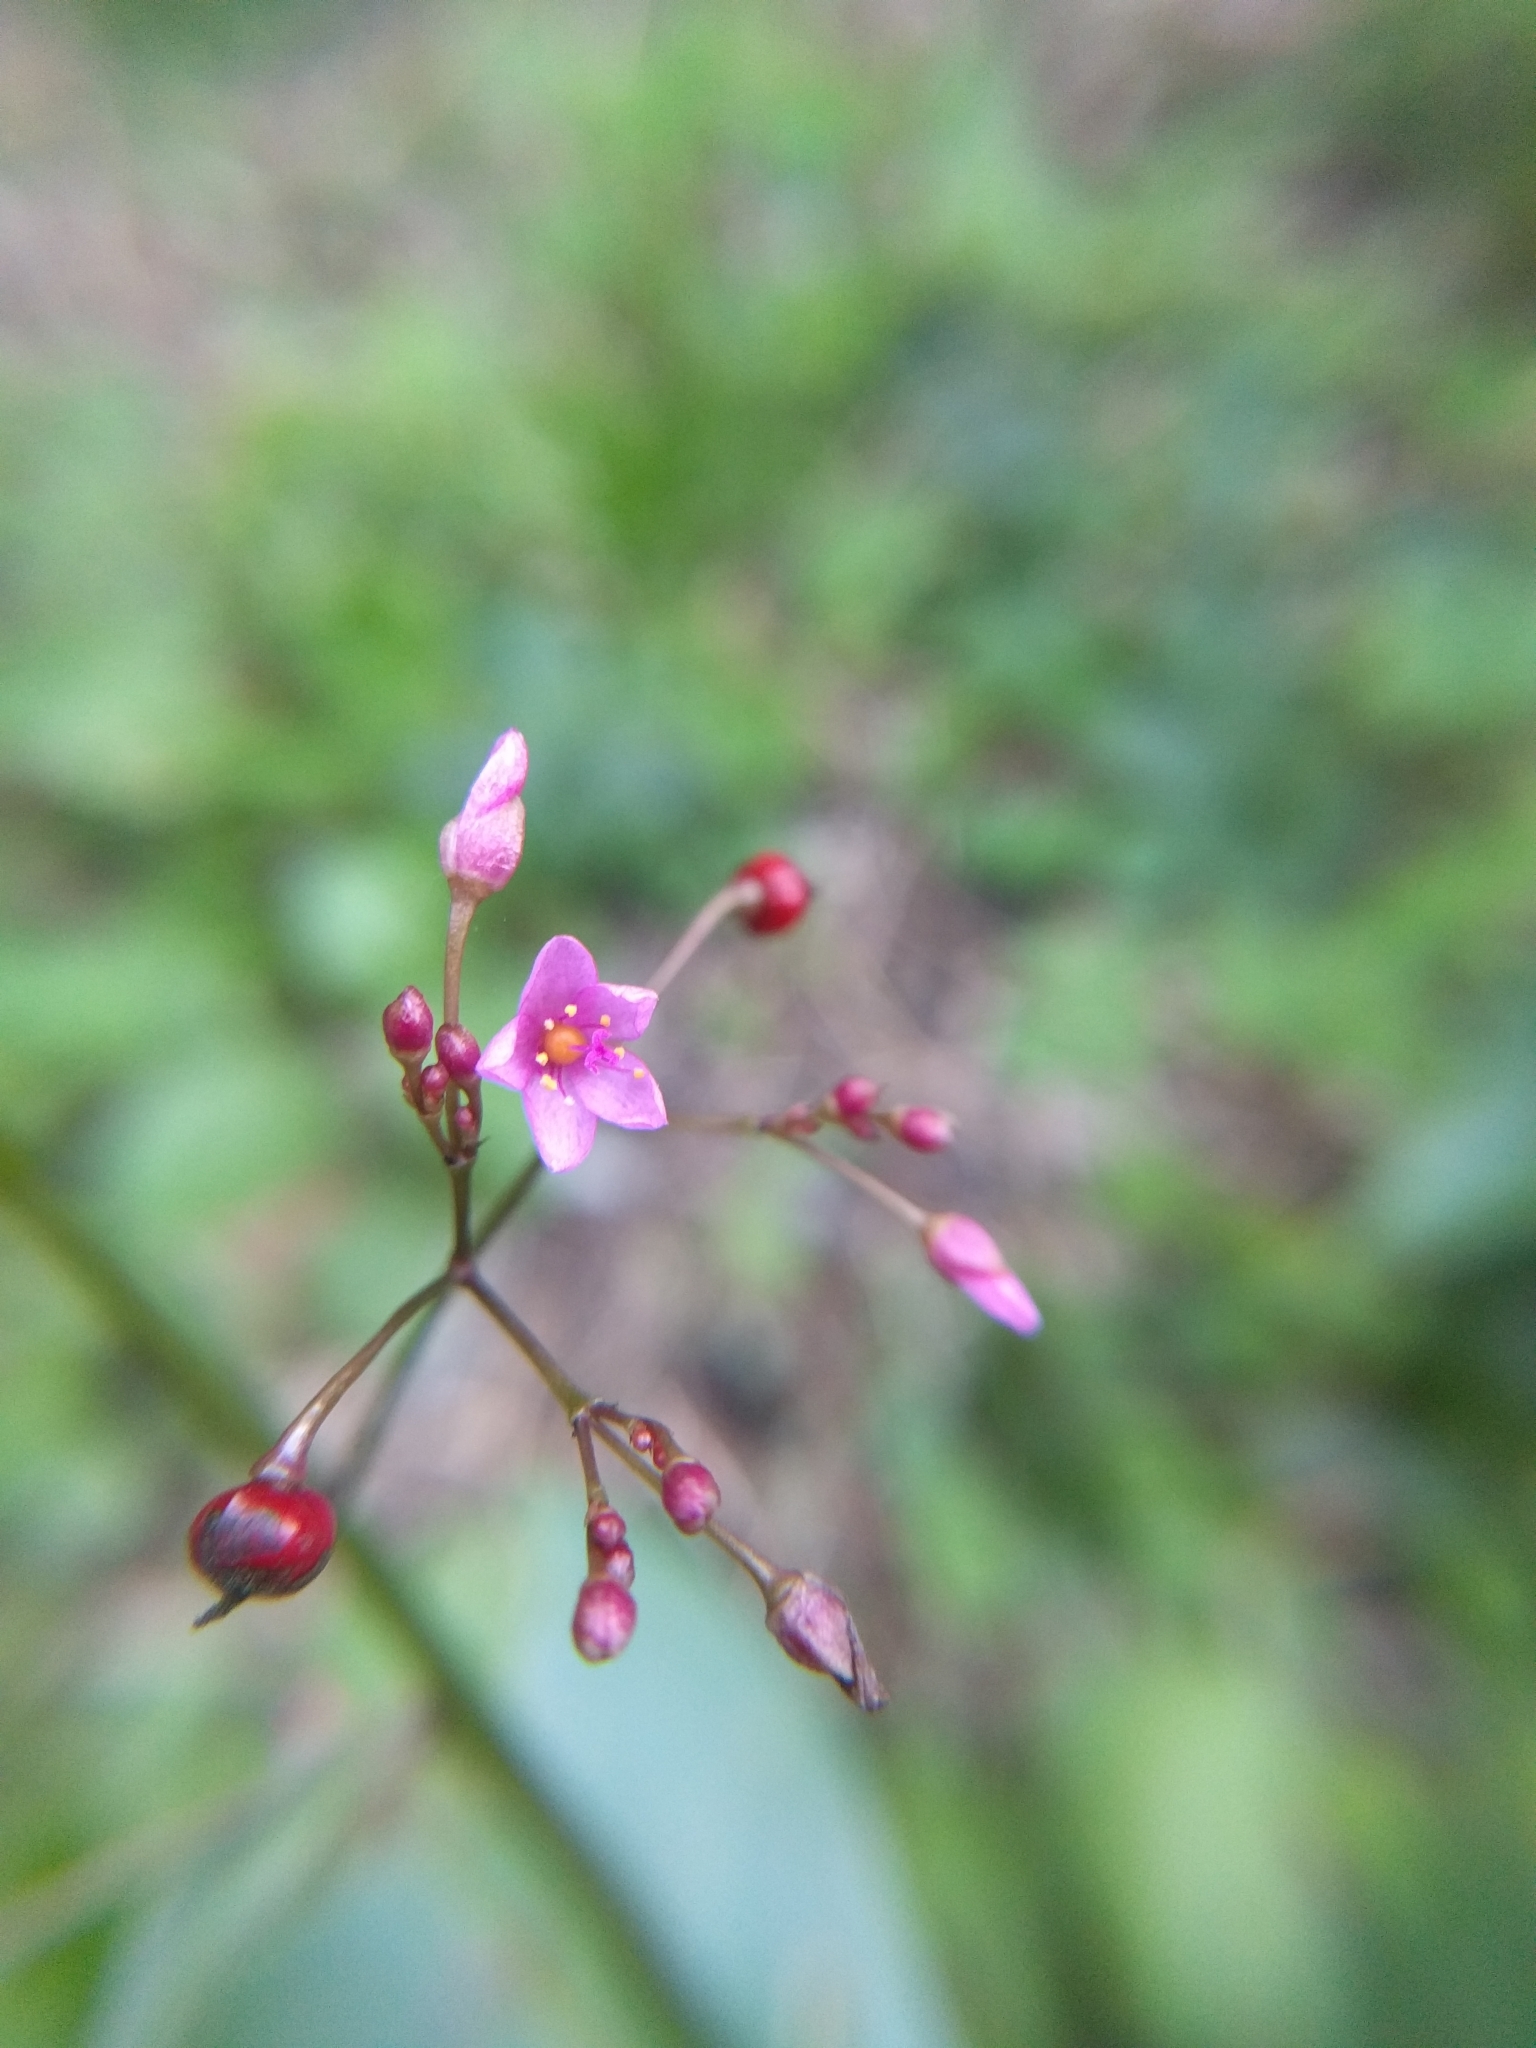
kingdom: Plantae
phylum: Tracheophyta
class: Magnoliopsida
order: Caryophyllales
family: Talinaceae
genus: Talinum
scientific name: Talinum paniculatum
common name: Jewels of opar
